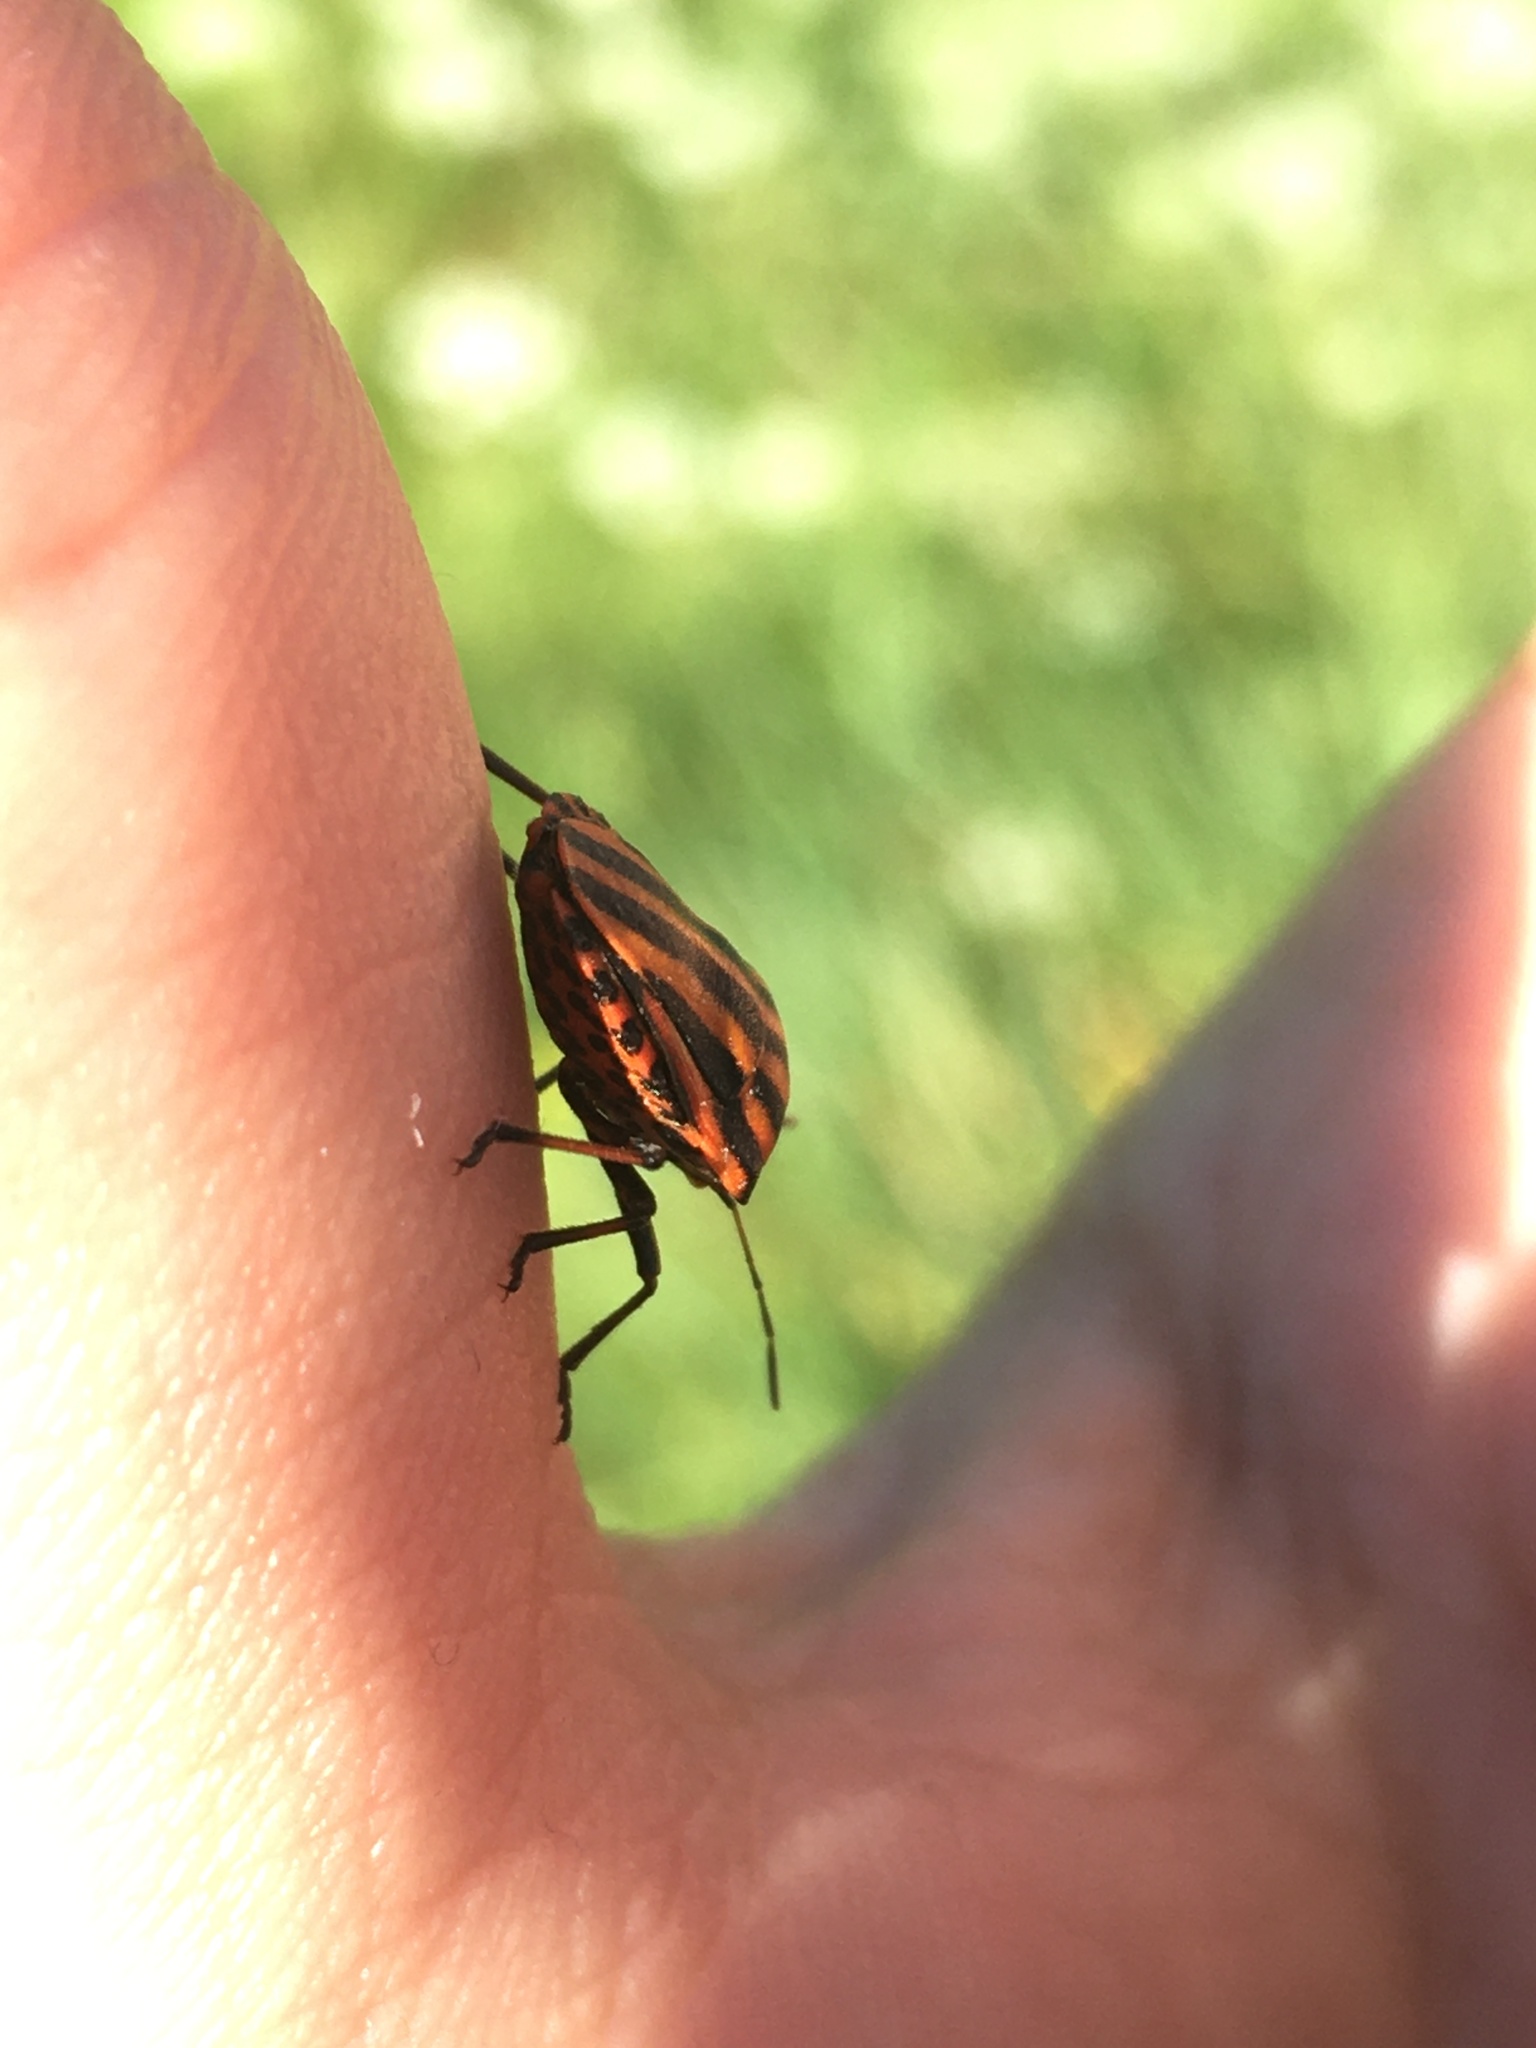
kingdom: Animalia
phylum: Arthropoda
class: Insecta
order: Hemiptera
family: Pentatomidae
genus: Graphosoma
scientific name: Graphosoma italicum
